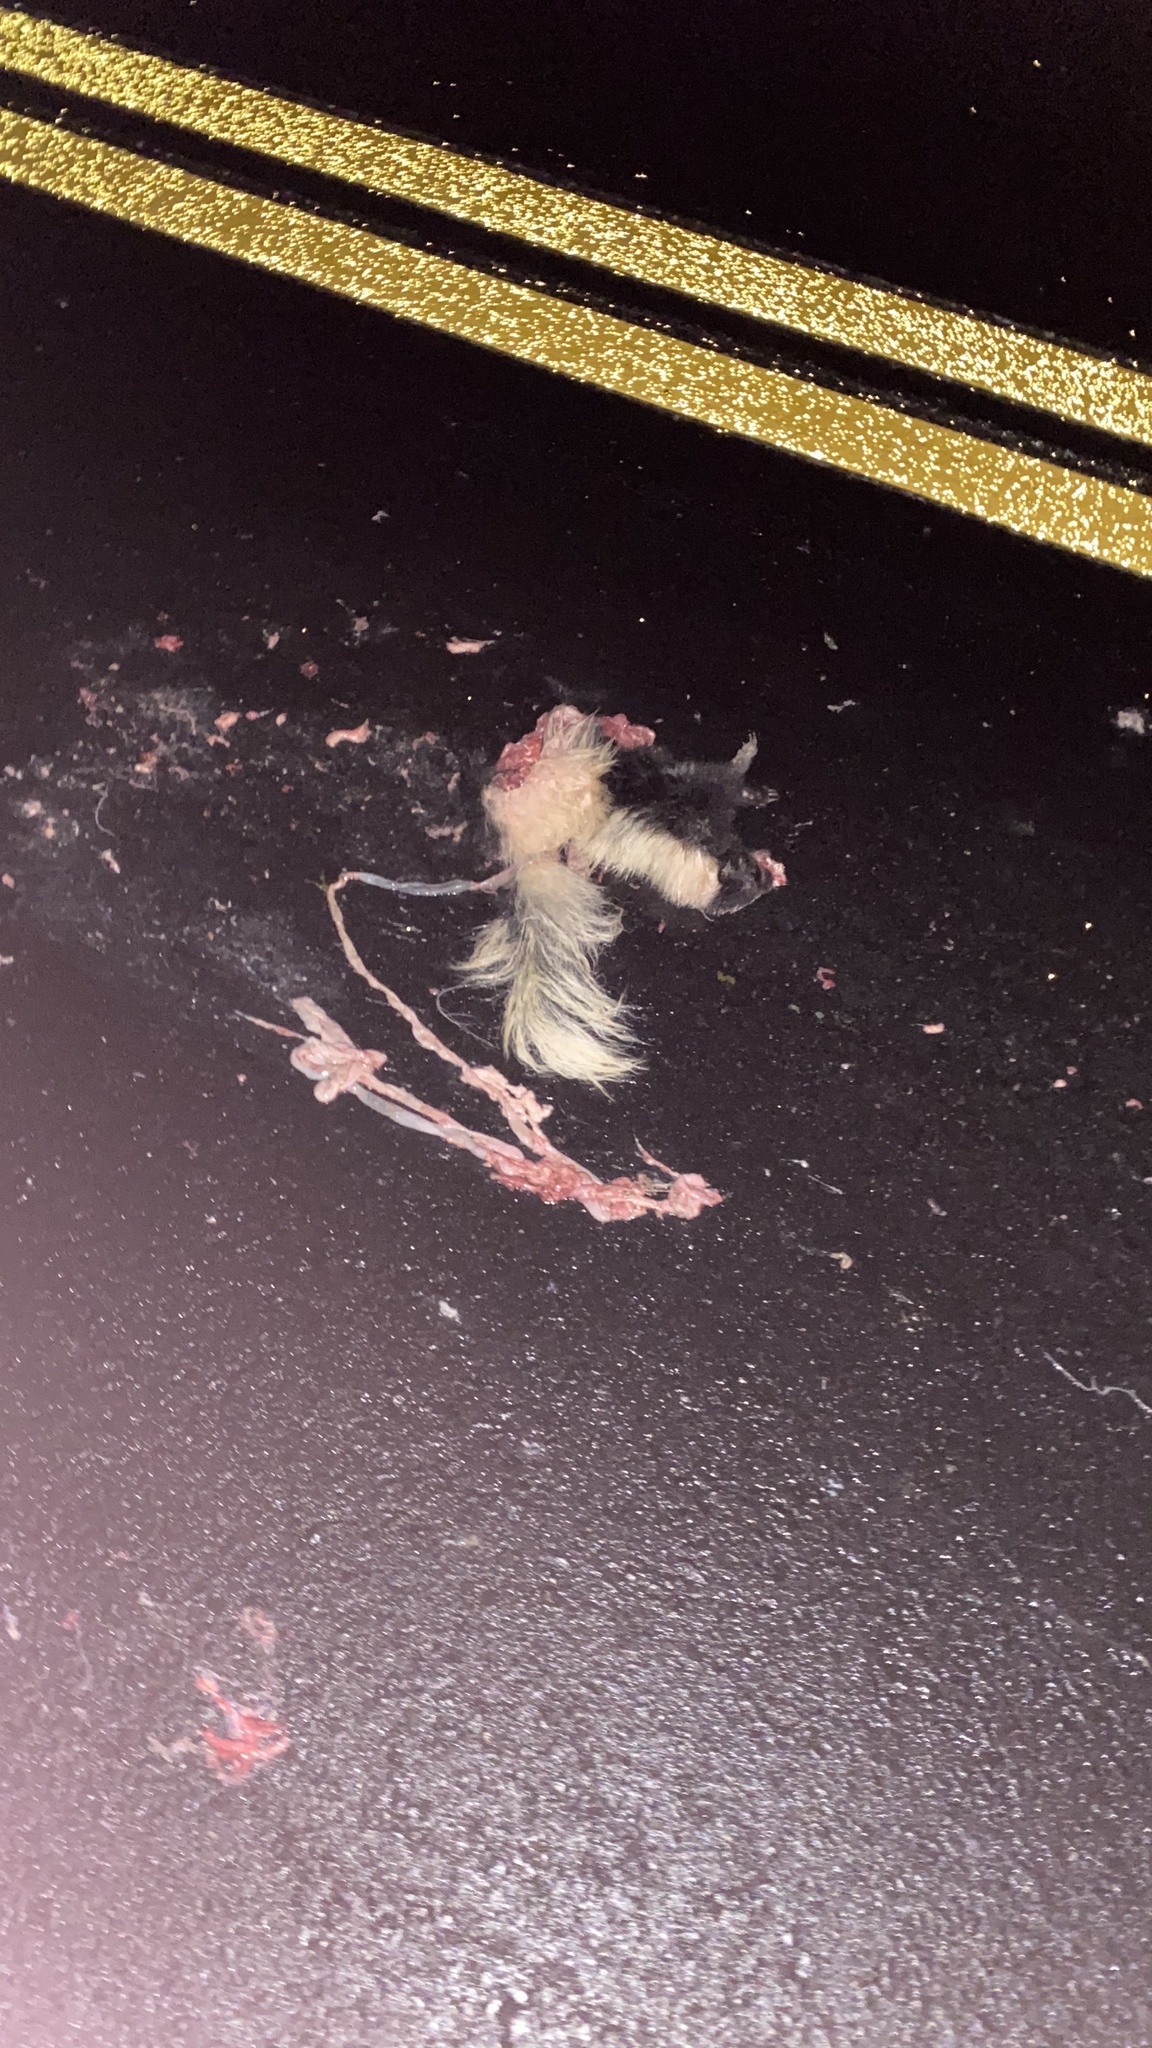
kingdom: Animalia
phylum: Chordata
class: Mammalia
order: Carnivora
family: Mephitidae
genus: Mephitis
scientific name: Mephitis mephitis
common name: Striped skunk
